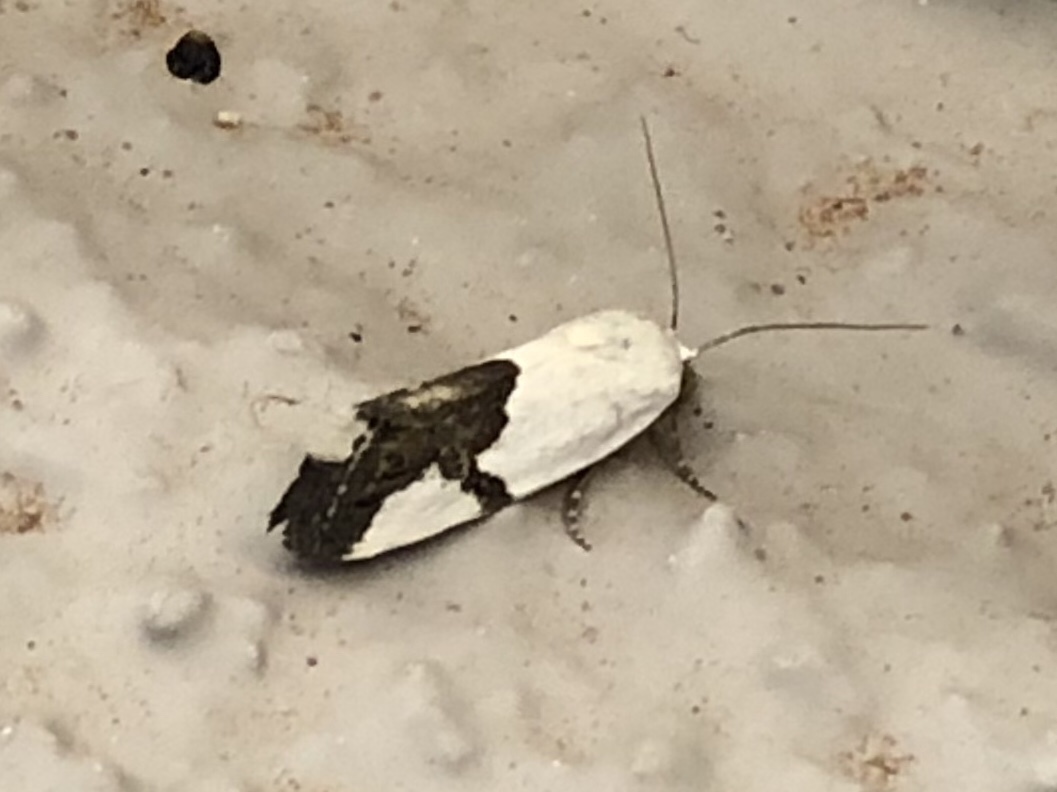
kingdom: Animalia
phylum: Arthropoda
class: Insecta
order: Lepidoptera
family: Noctuidae
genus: Acontia
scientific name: Acontia cuta
